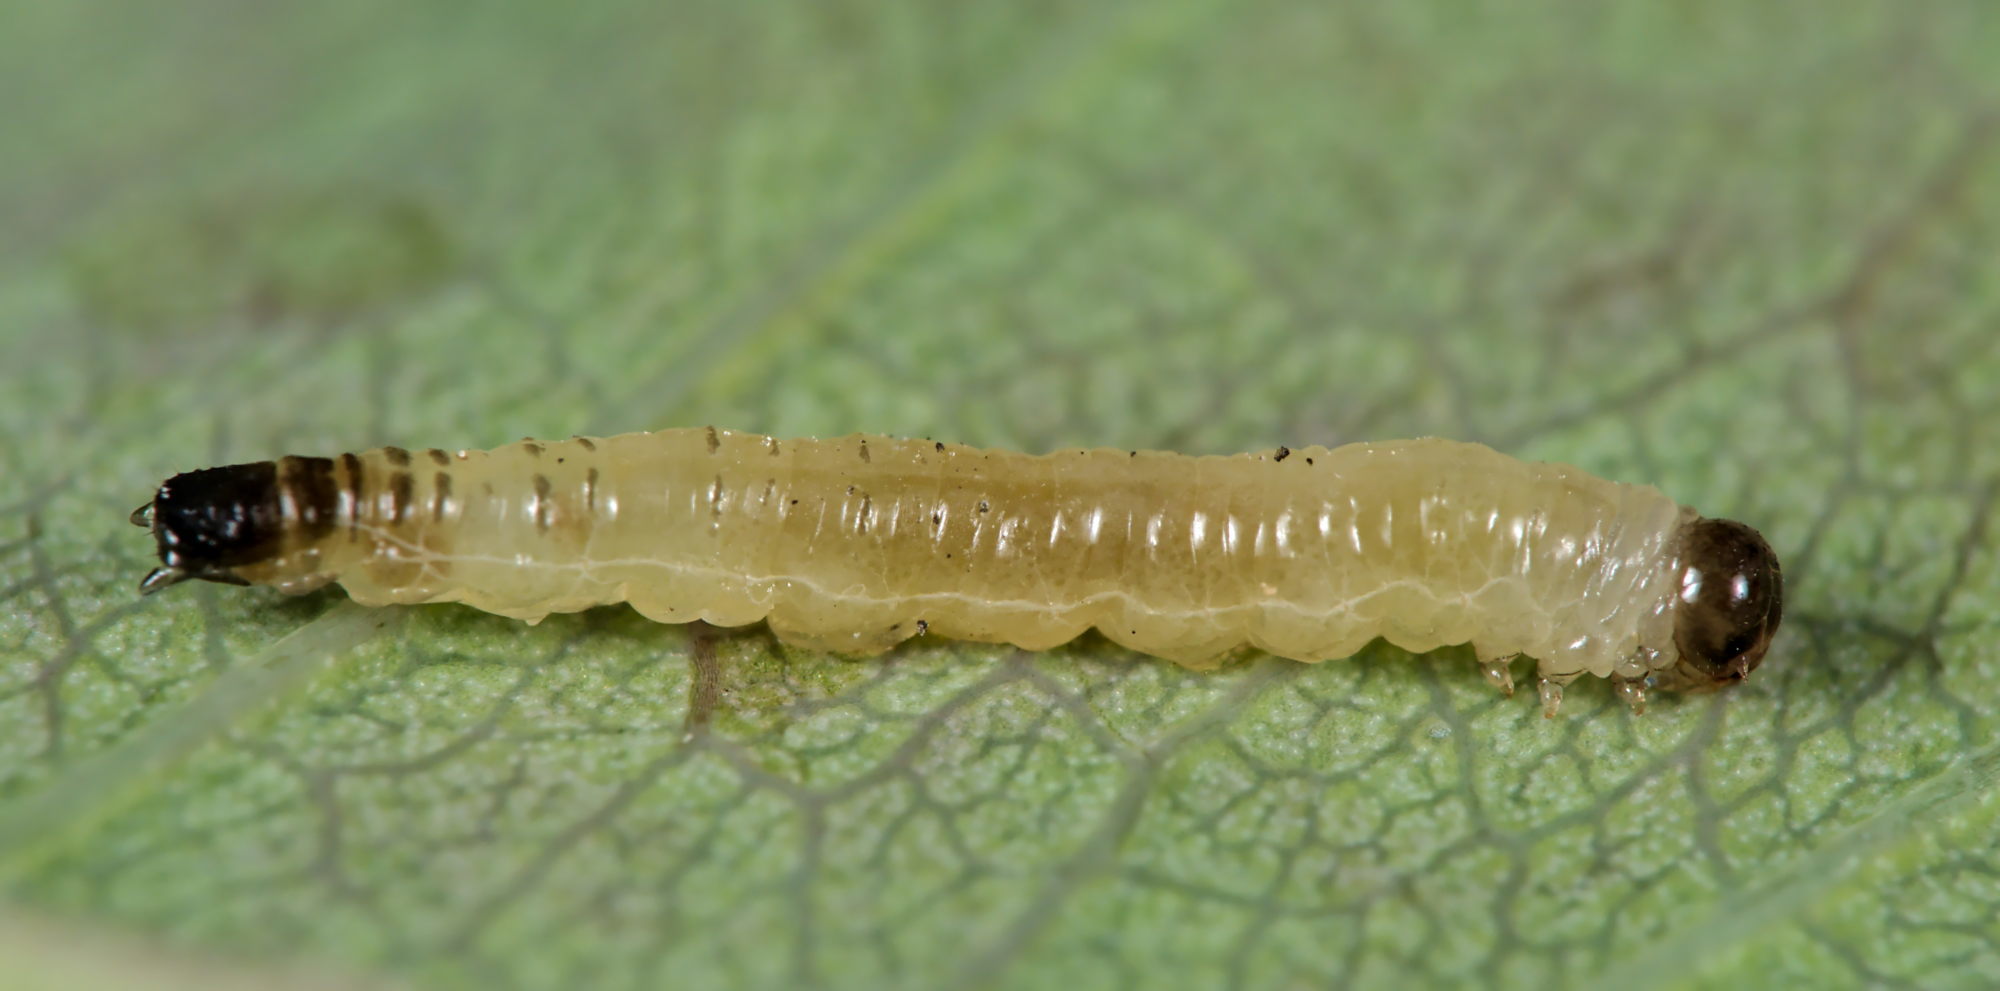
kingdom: Animalia
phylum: Arthropoda
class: Insecta
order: Hymenoptera
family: Tenthredinidae
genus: Cladardis
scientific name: Cladardis elongatula
